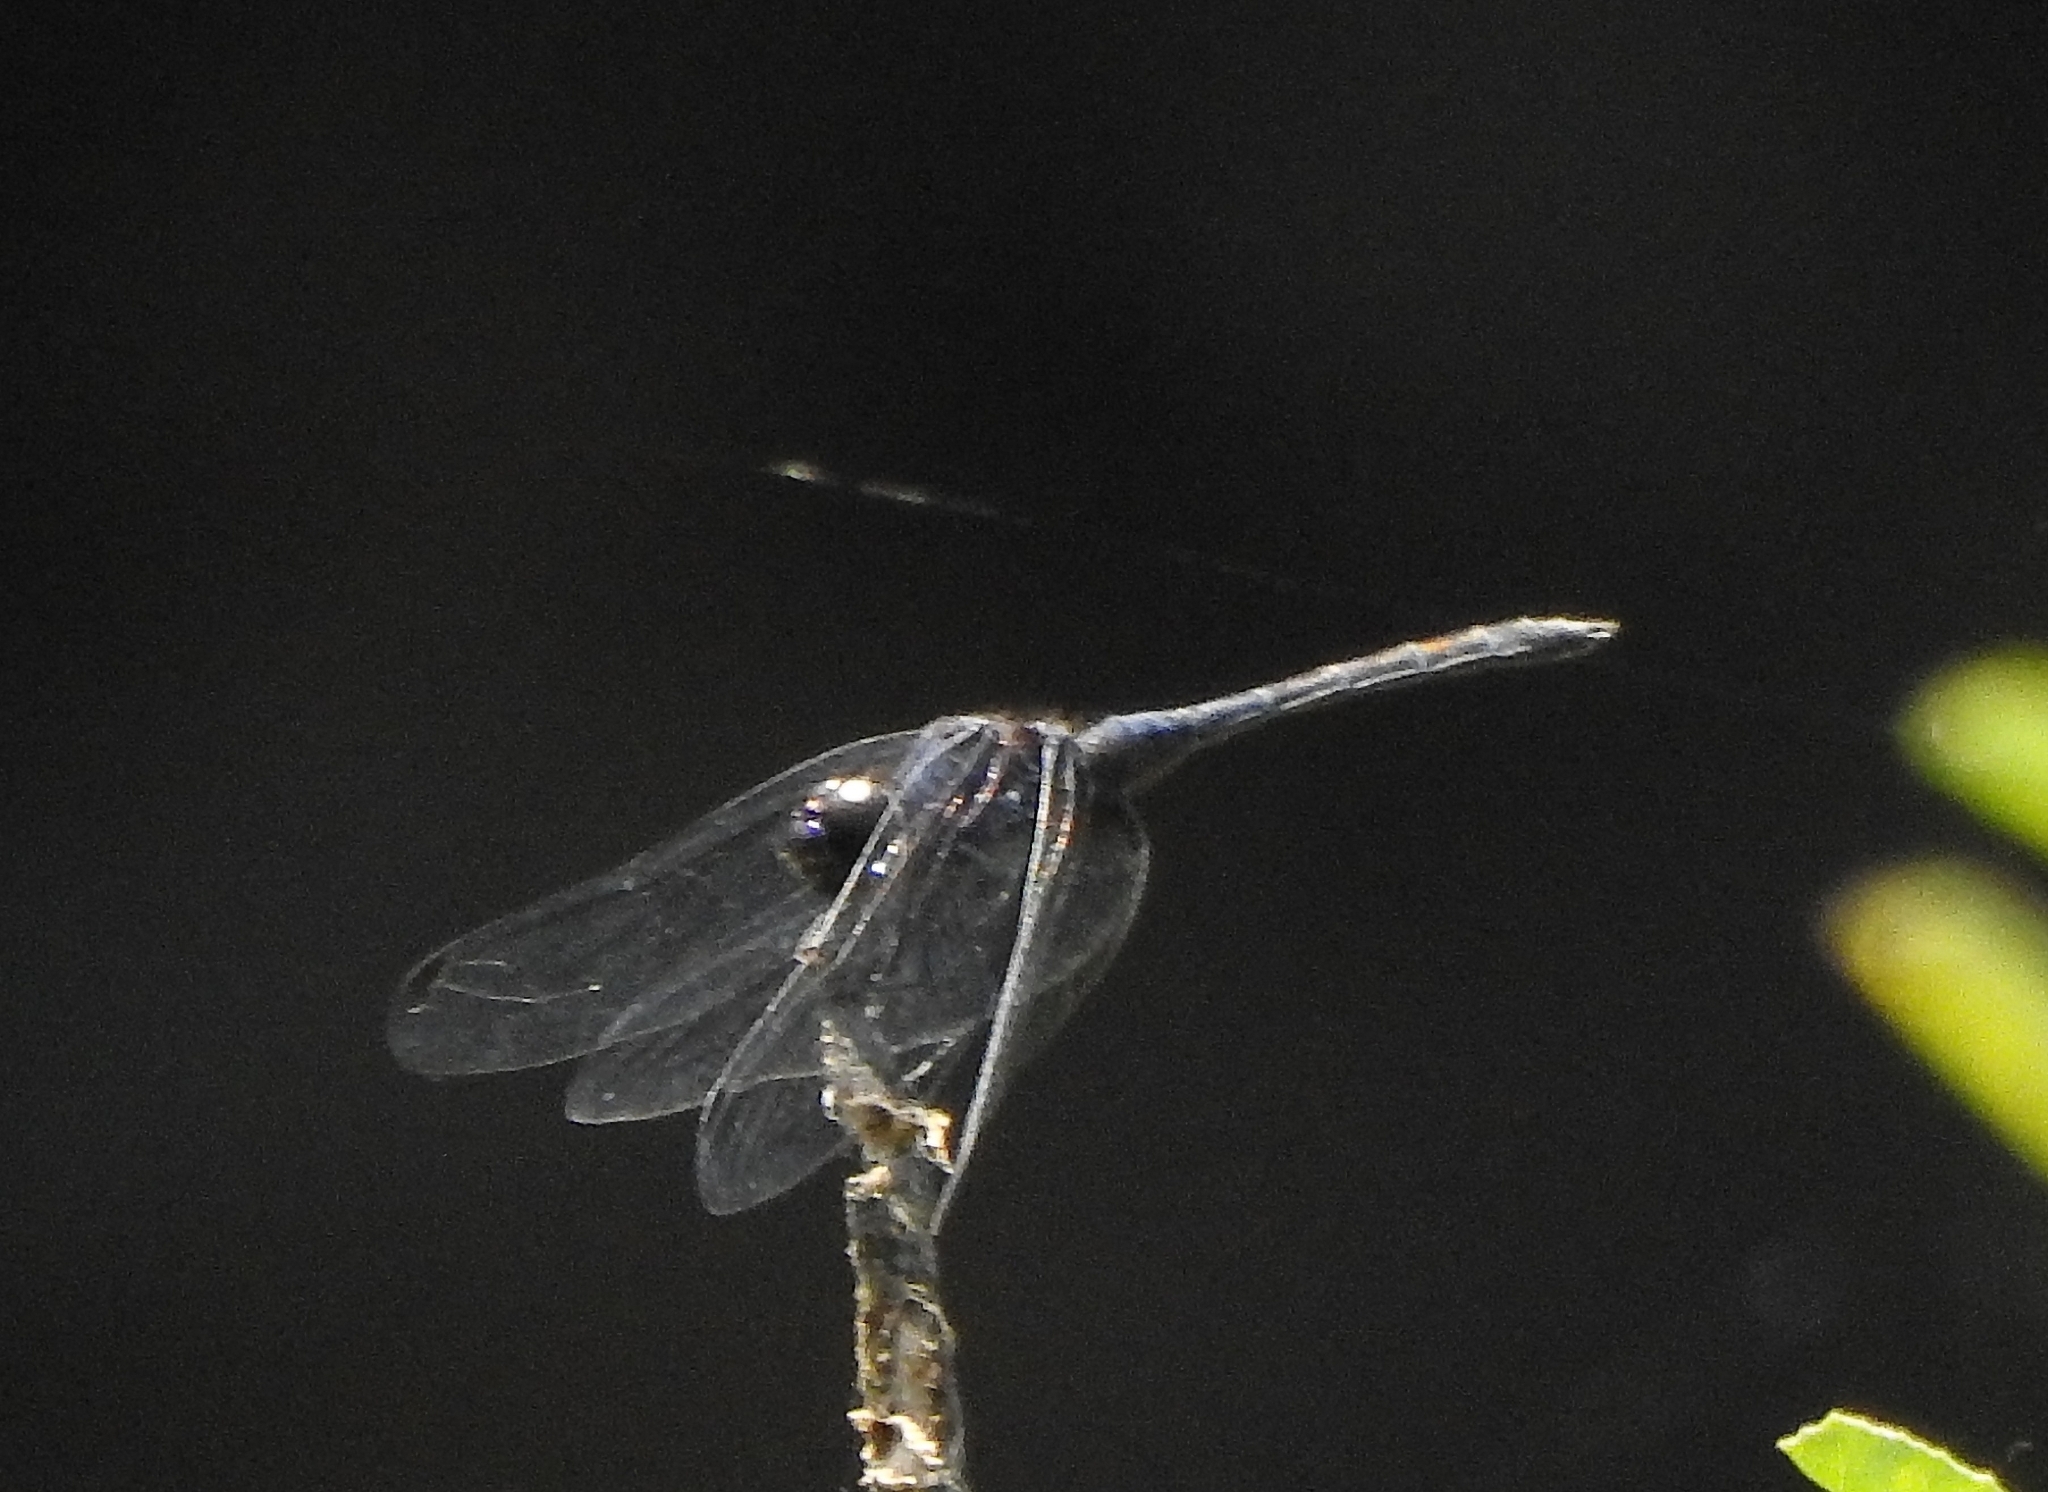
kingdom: Animalia
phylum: Arthropoda
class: Insecta
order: Odonata
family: Libellulidae
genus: Trithemis
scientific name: Trithemis festiva
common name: Indigo dropwing
